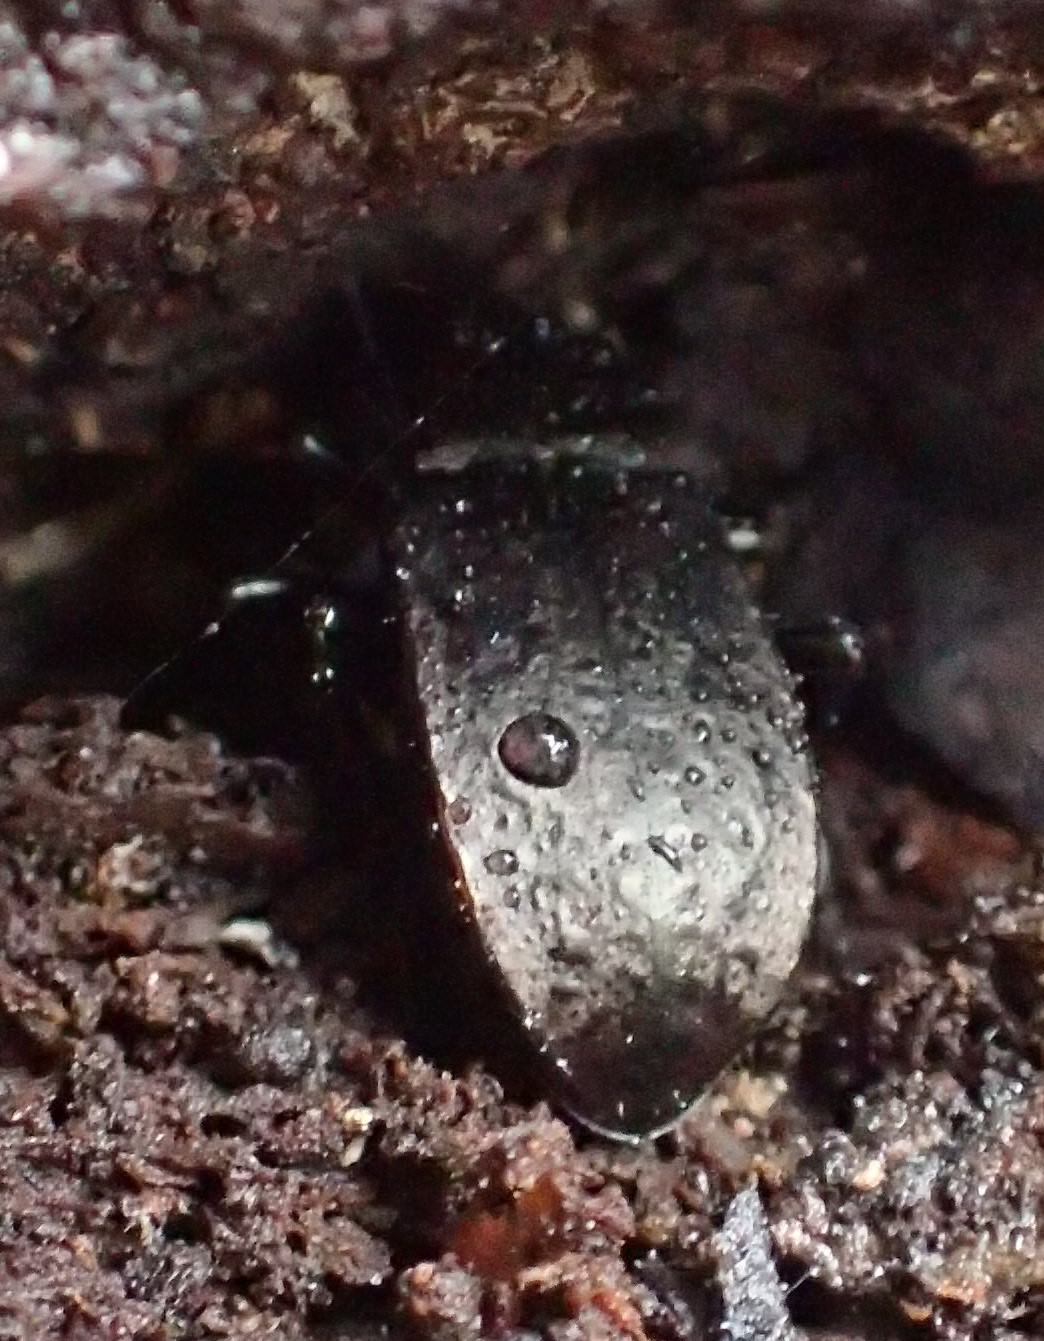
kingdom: Animalia
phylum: Arthropoda
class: Insecta
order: Coleoptera
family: Tenebrionidae
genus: Coripera
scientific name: Coripera deplanata
